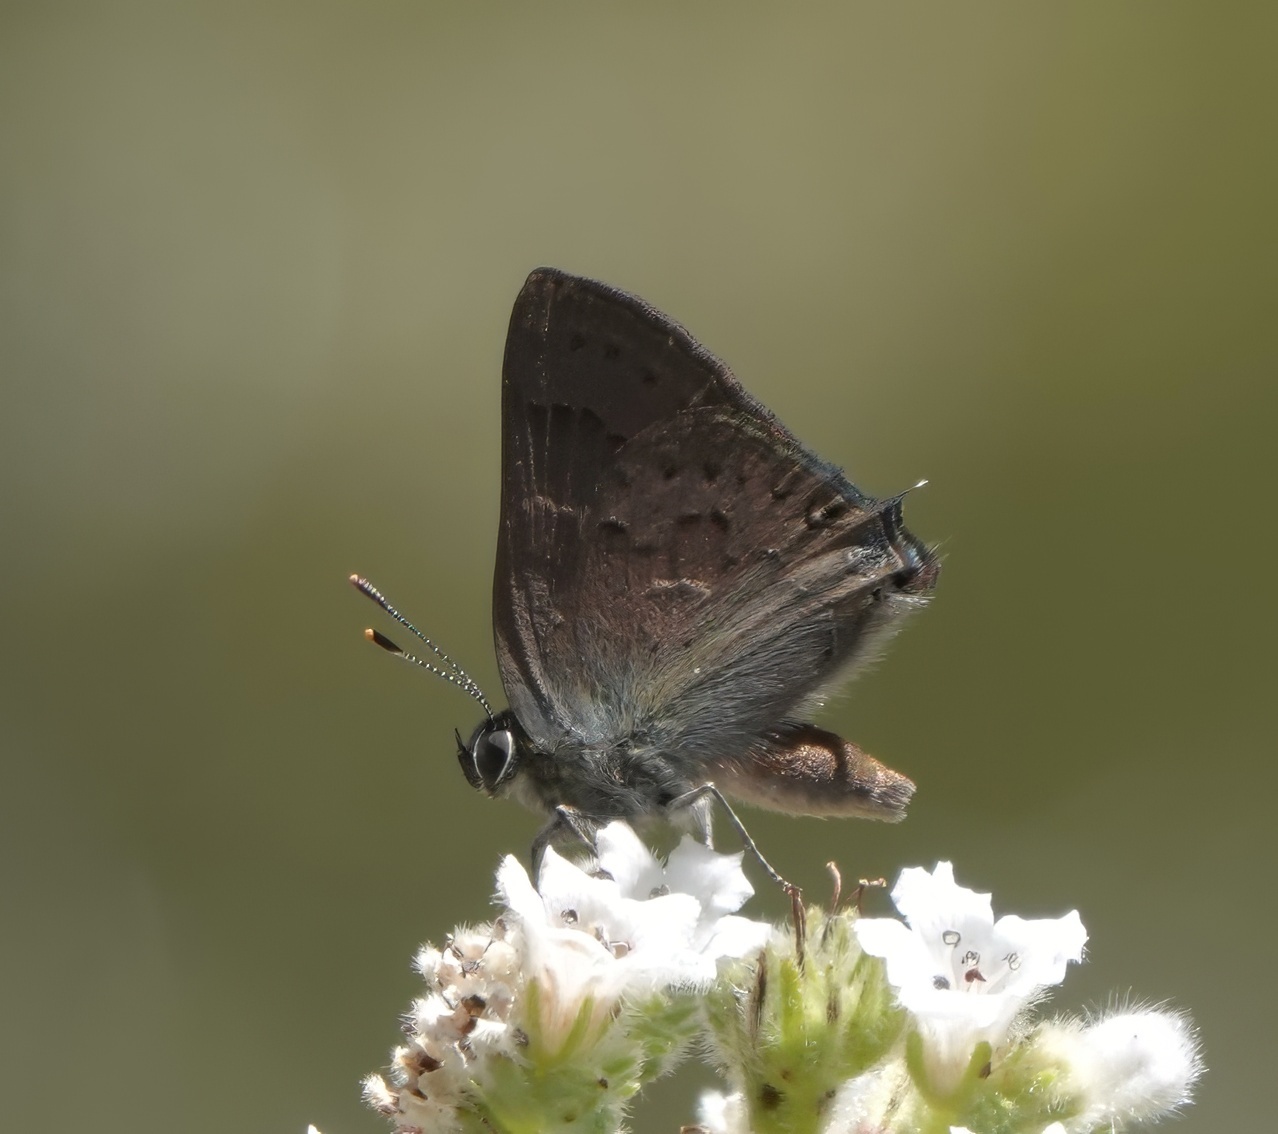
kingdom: Animalia
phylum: Arthropoda
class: Insecta
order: Lepidoptera
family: Lycaenidae
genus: Strymon
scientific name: Strymon saepium
